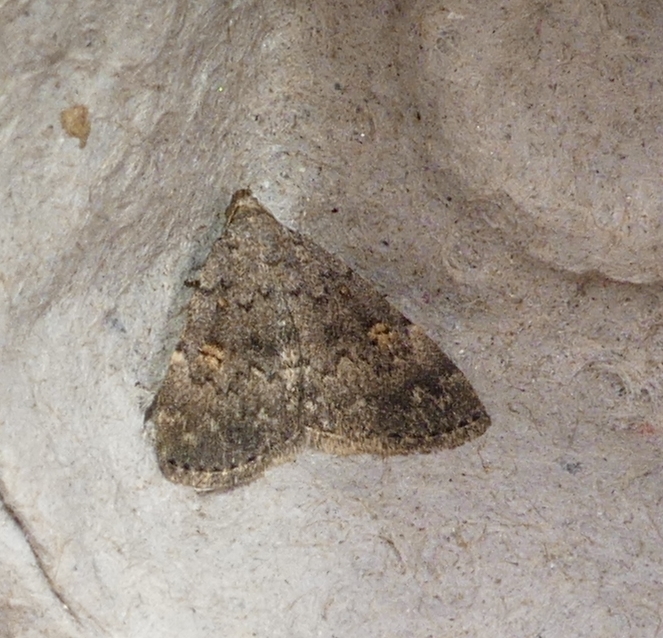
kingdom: Animalia
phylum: Arthropoda
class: Insecta
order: Lepidoptera
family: Erebidae
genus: Idia
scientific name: Idia aemula
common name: Common idia moth
